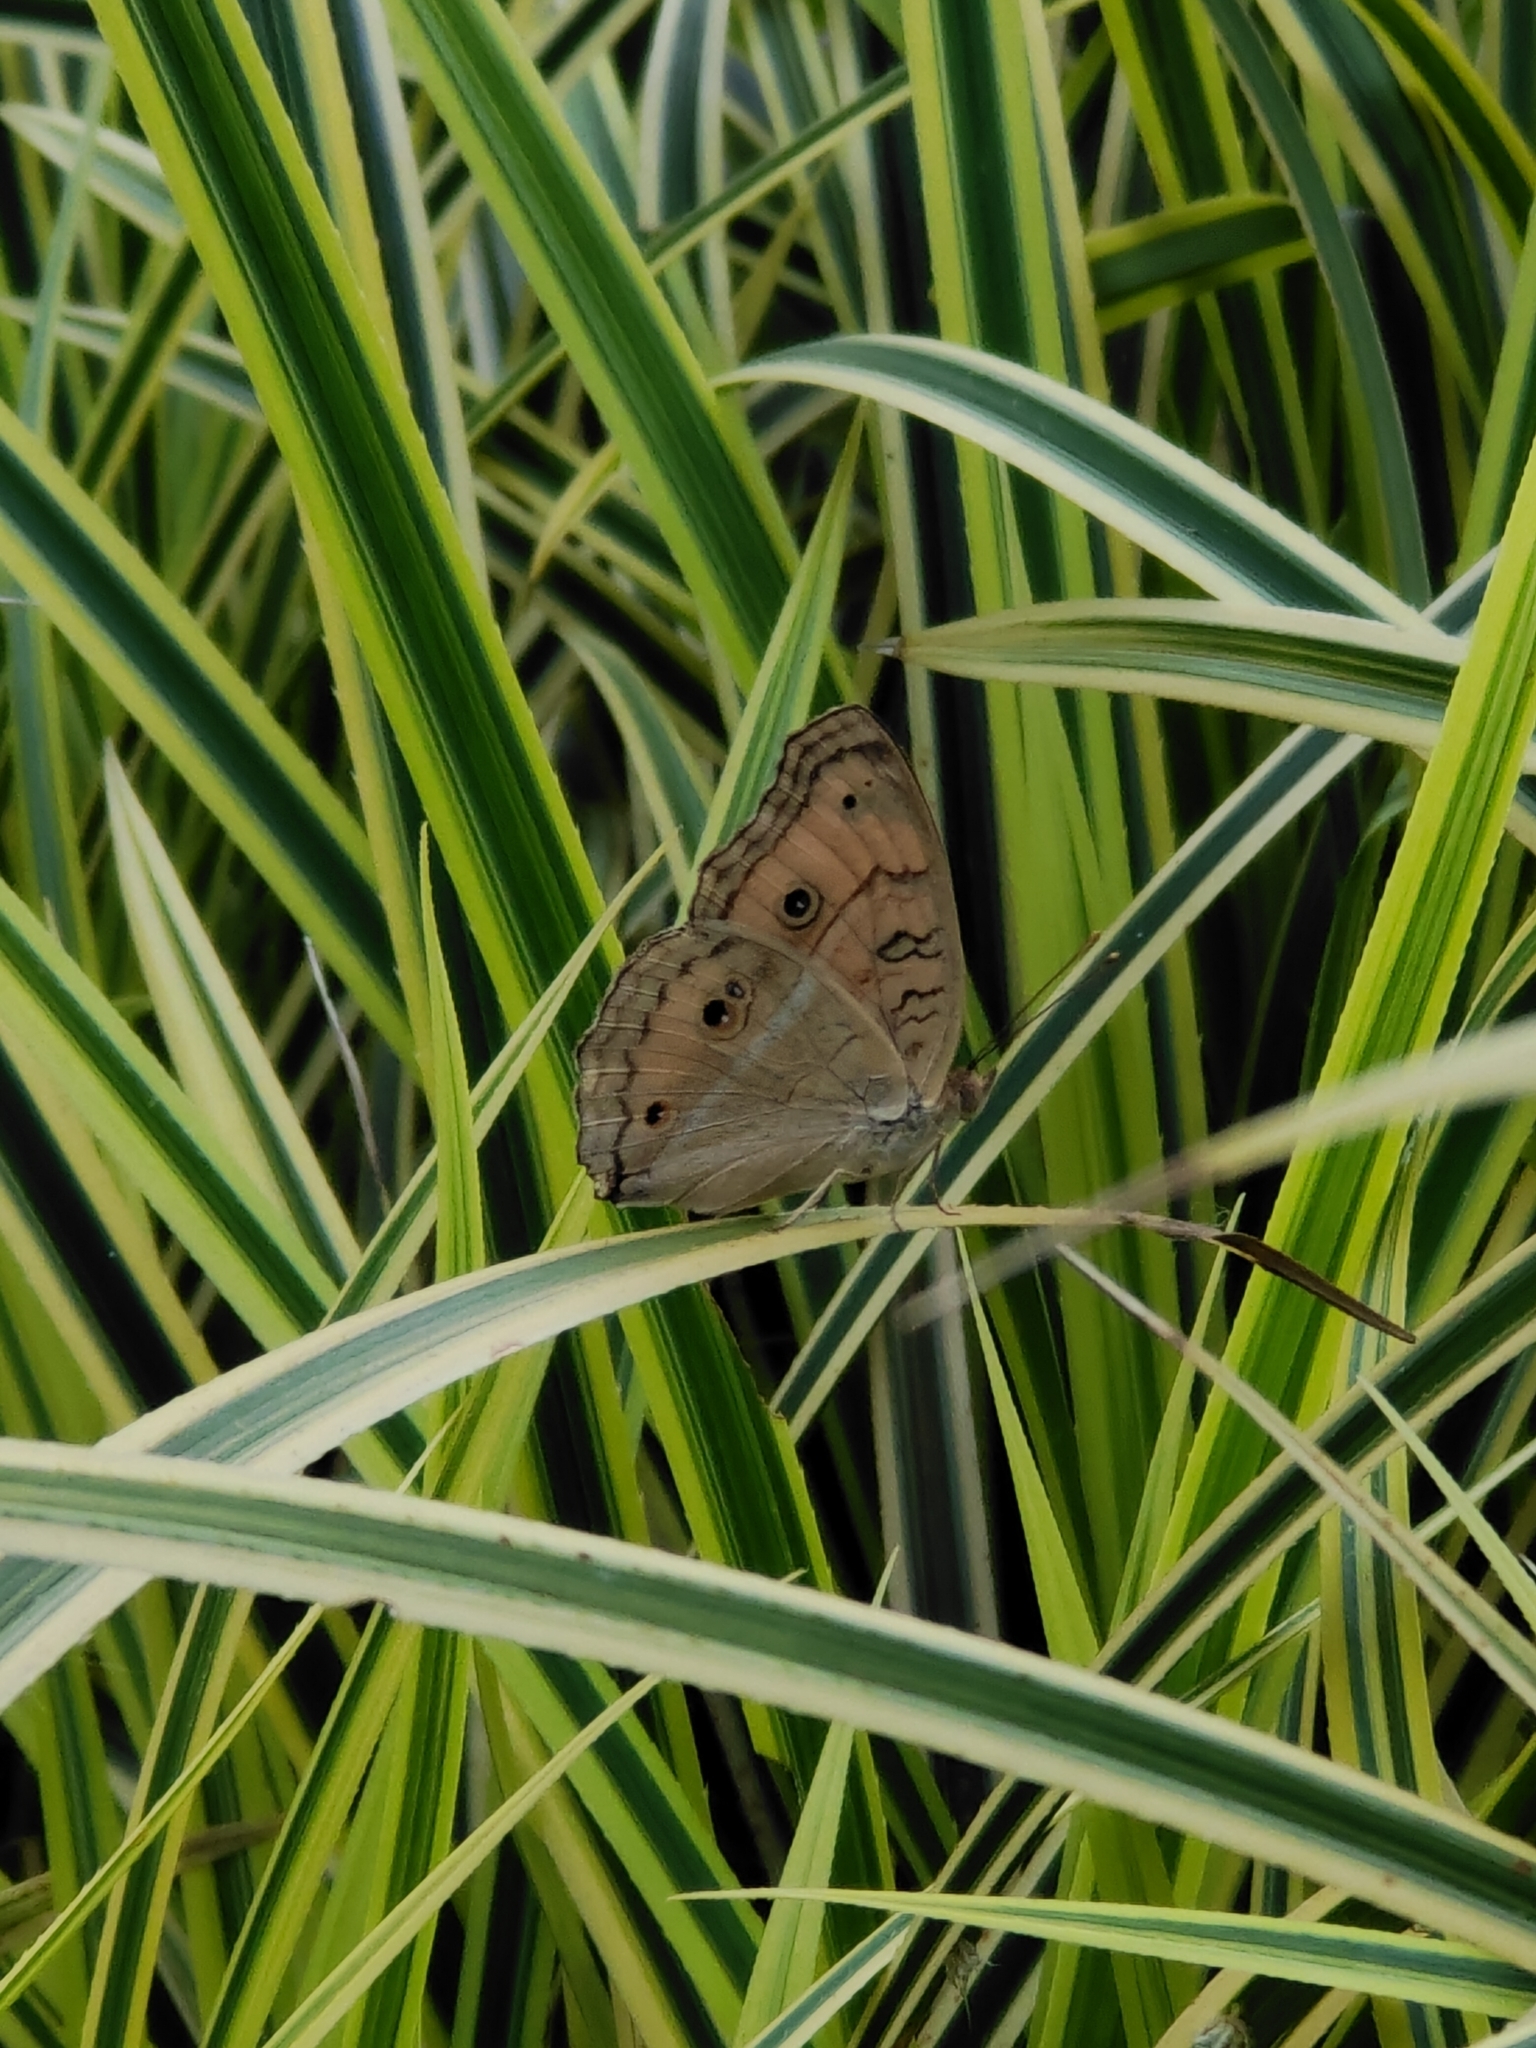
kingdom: Animalia
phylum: Arthropoda
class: Insecta
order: Lepidoptera
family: Nymphalidae
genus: Junonia
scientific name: Junonia almana
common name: Peacock pansy
